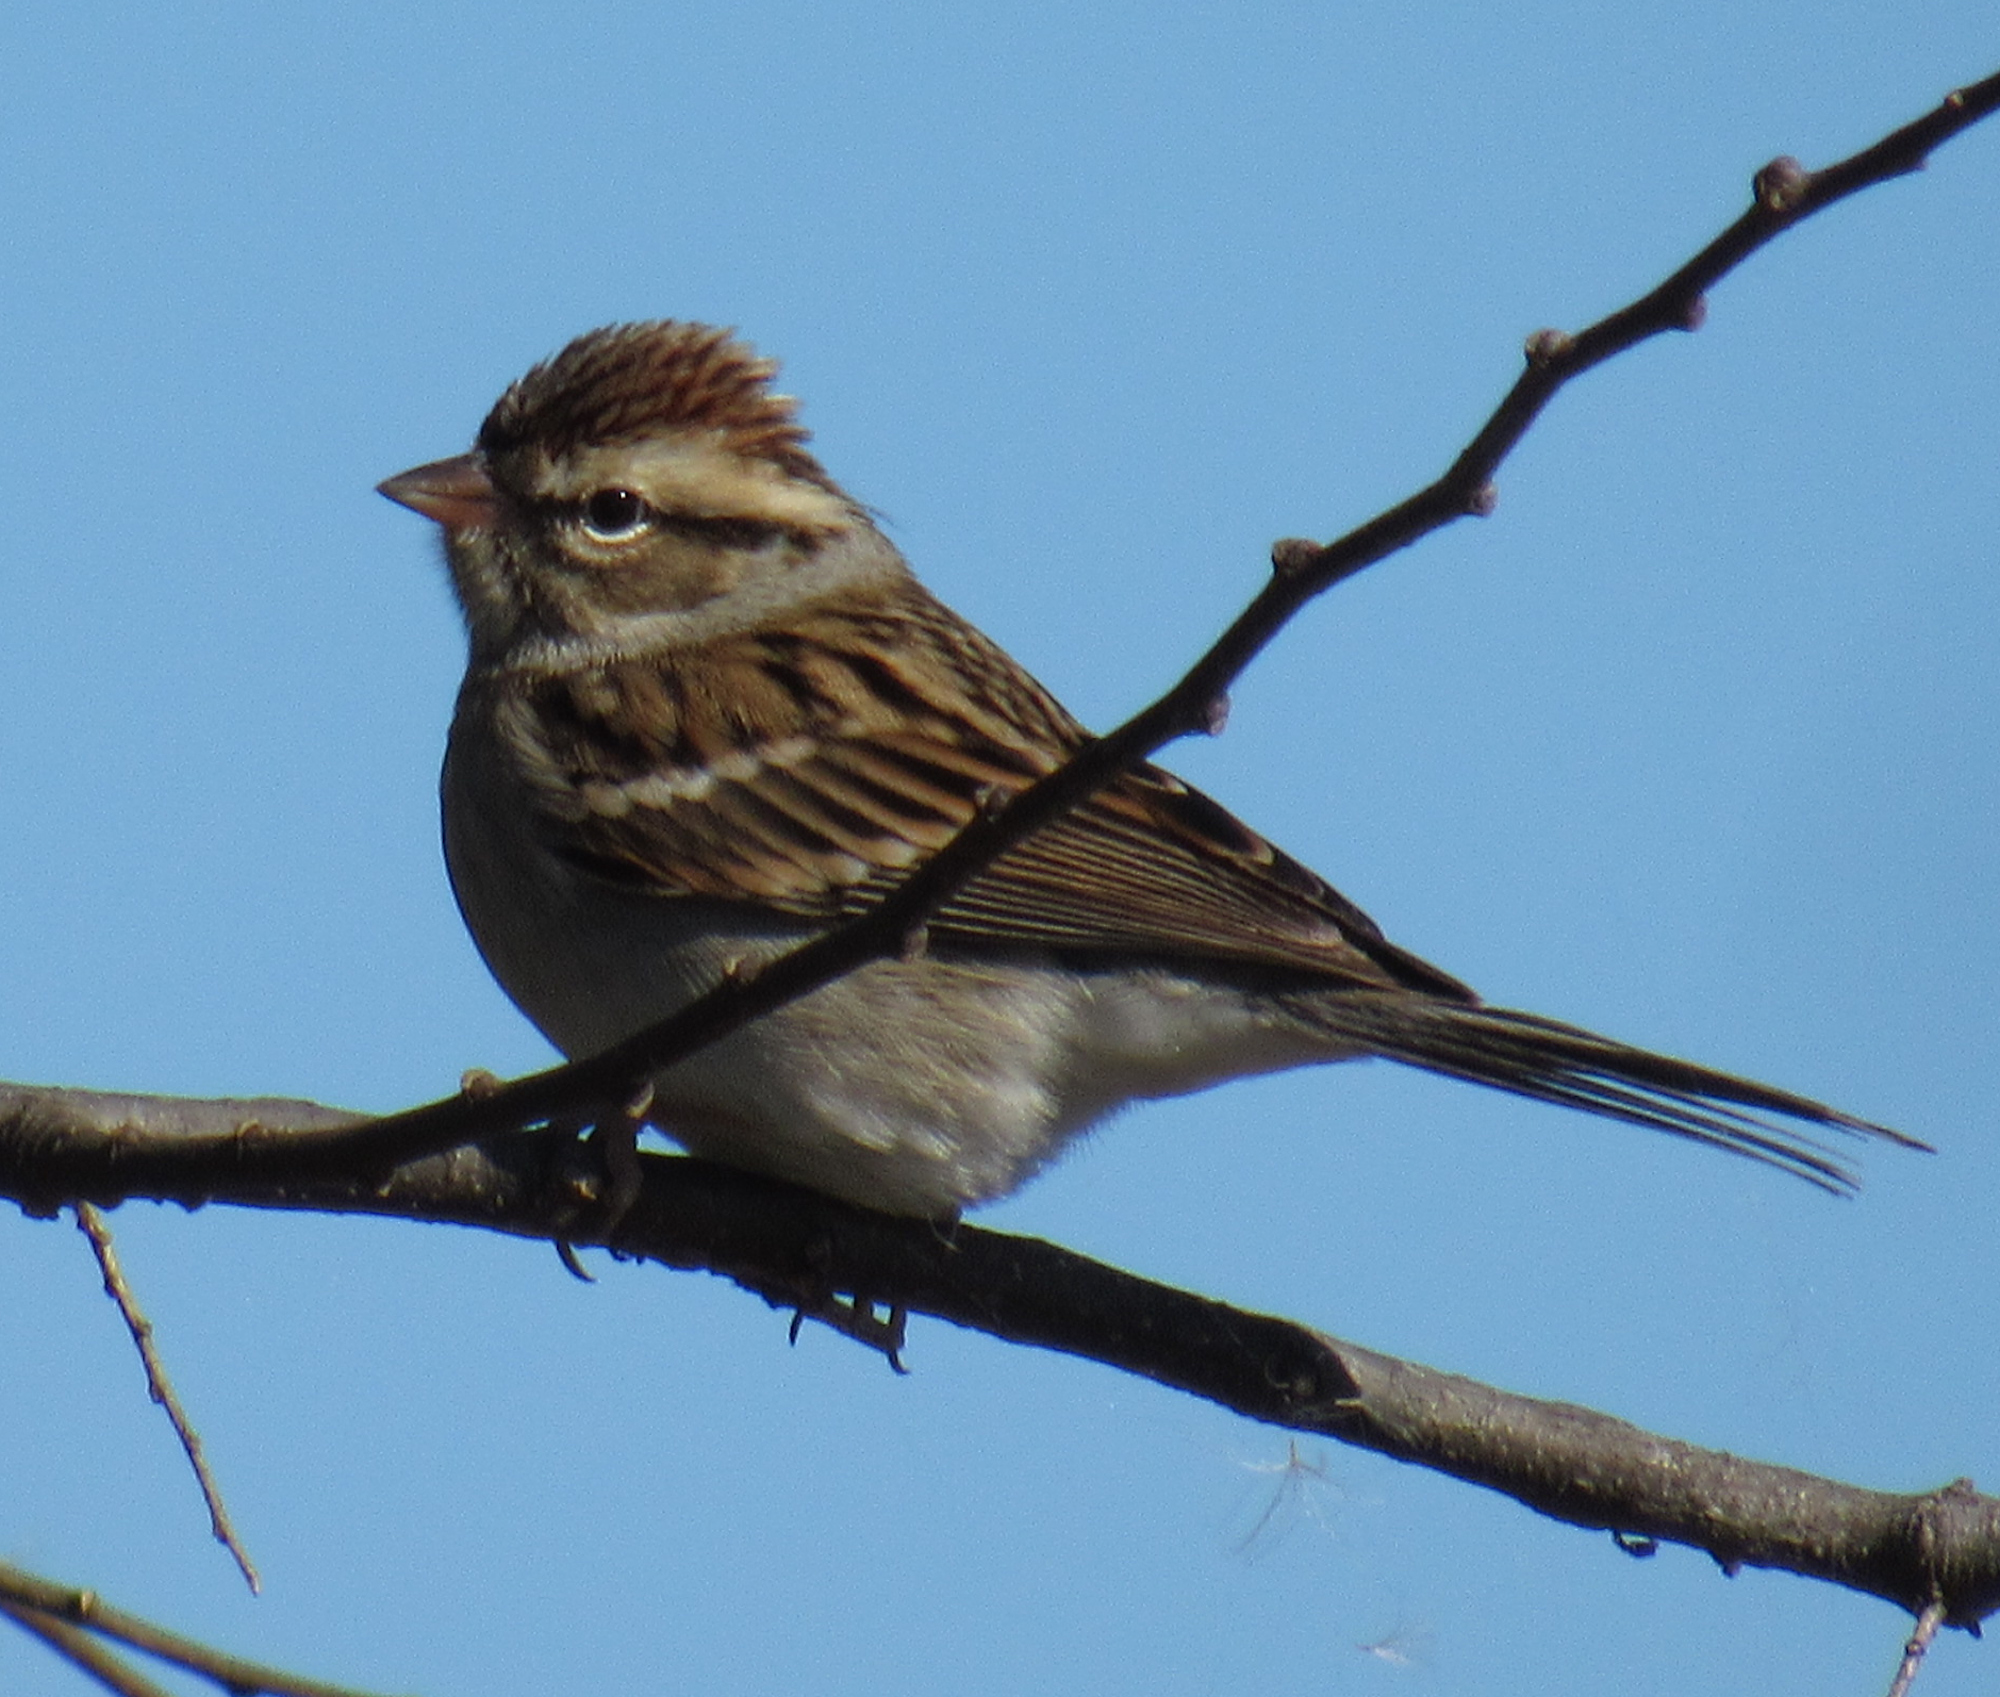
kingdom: Animalia
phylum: Chordata
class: Aves
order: Passeriformes
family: Passerellidae
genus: Spizella
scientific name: Spizella passerina
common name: Chipping sparrow
